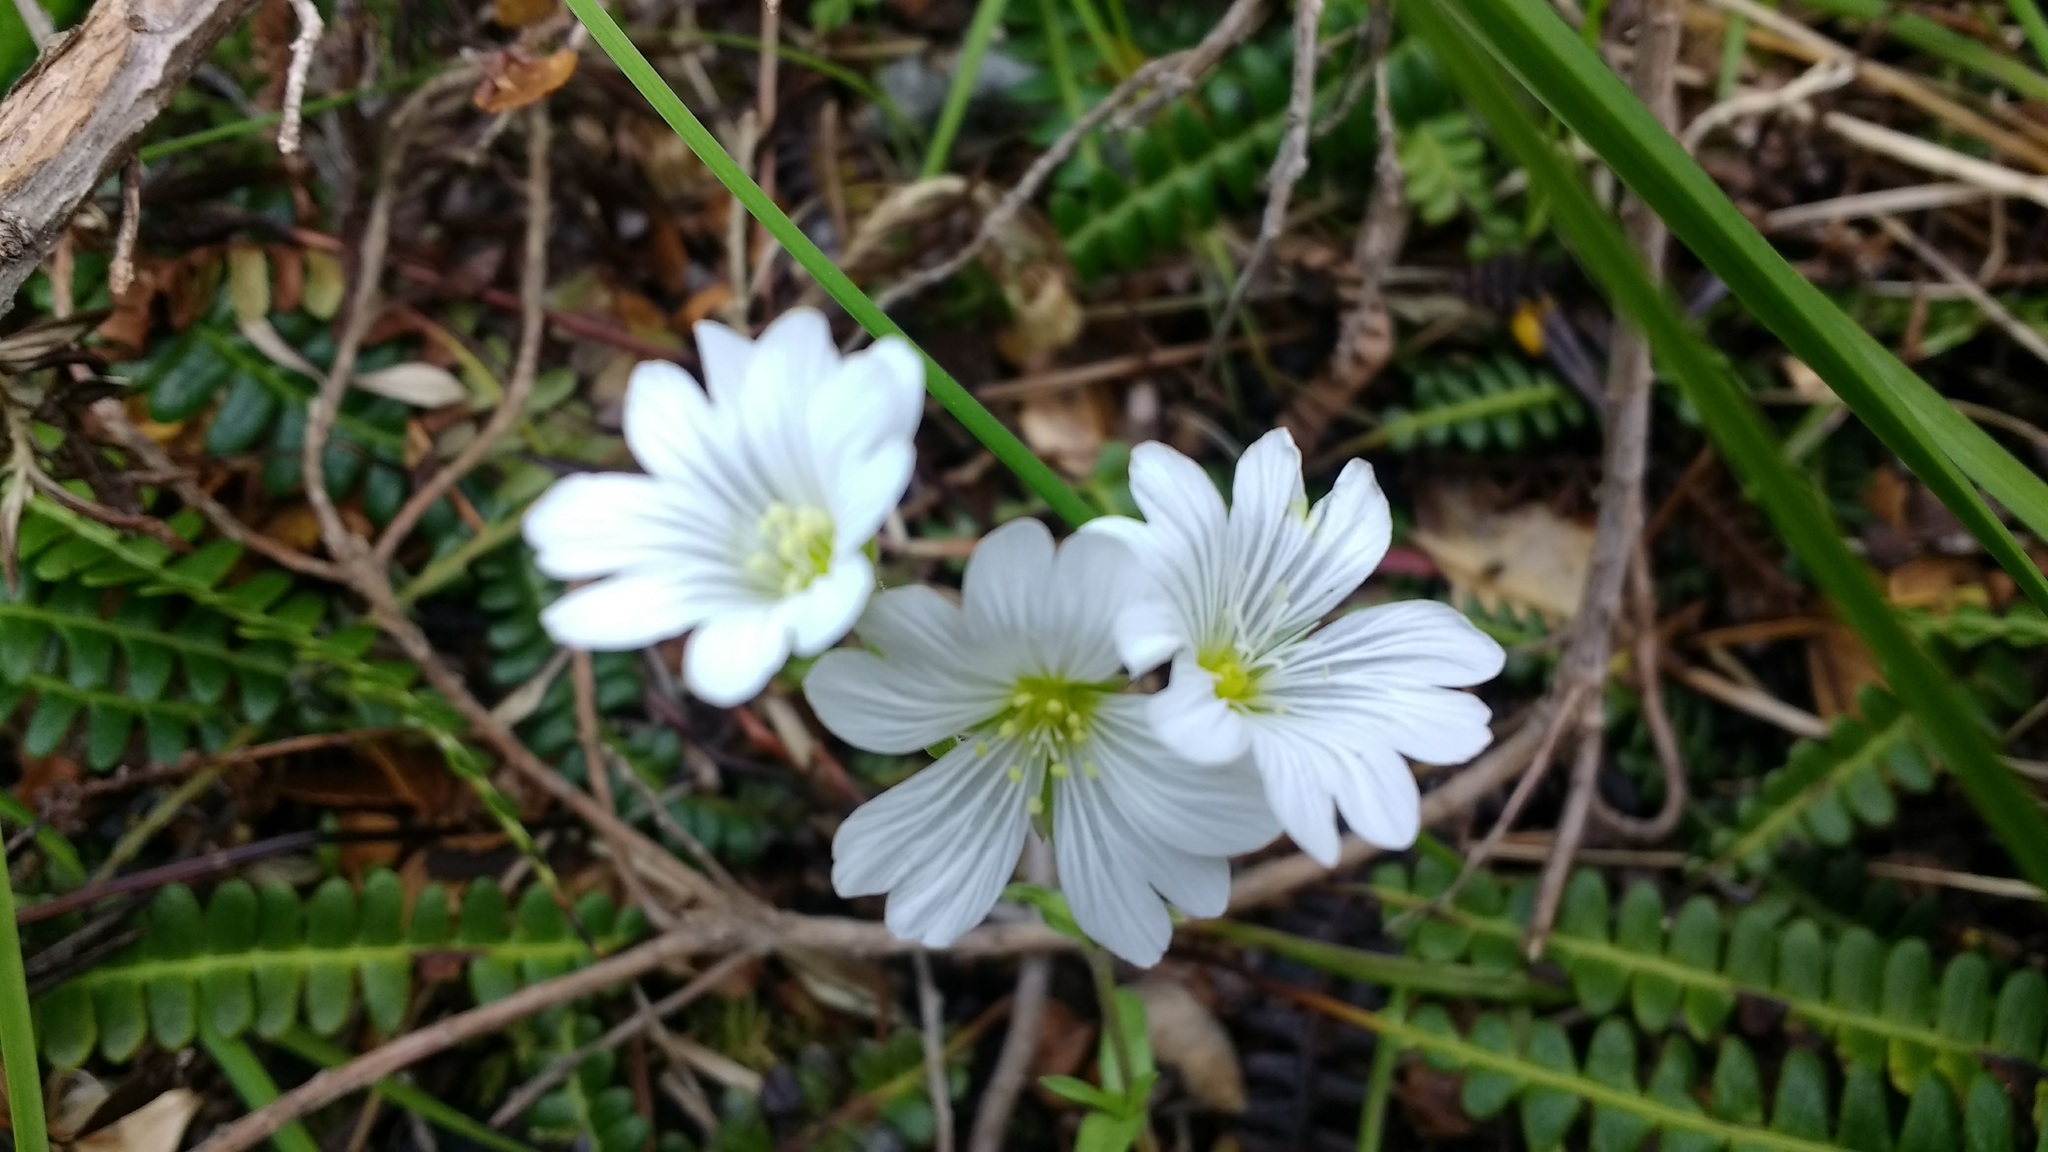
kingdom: Plantae
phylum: Tracheophyta
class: Magnoliopsida
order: Caryophyllales
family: Caryophyllaceae
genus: Cerastium
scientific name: Cerastium arvense
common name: Field mouse-ear
